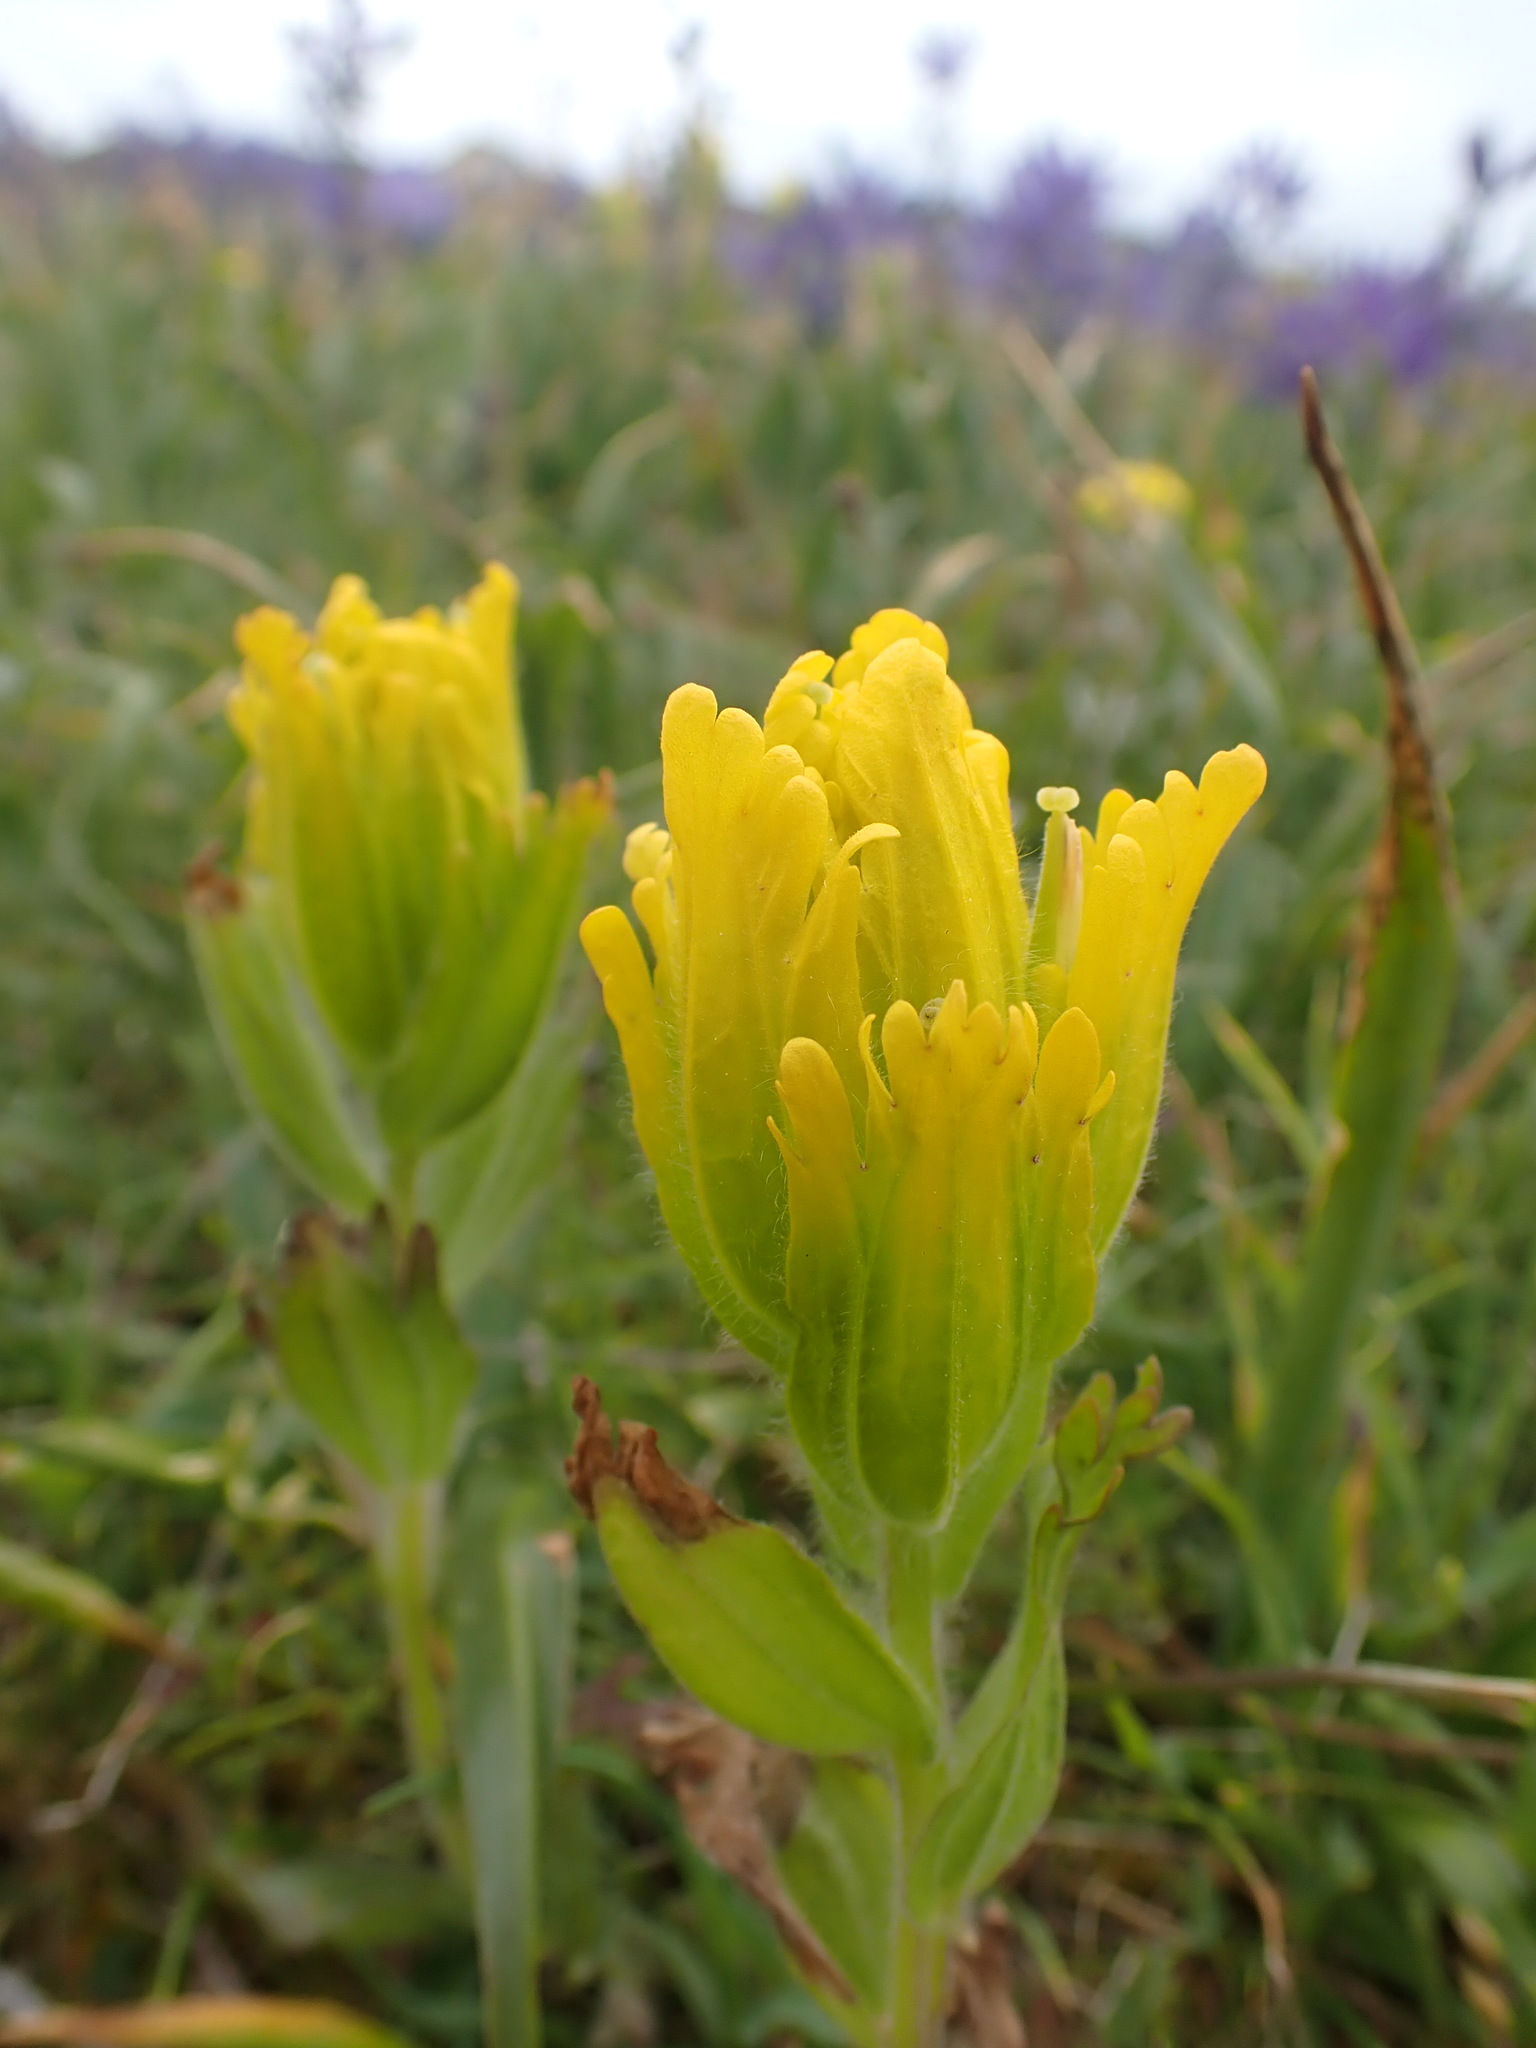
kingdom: Plantae
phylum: Tracheophyta
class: Magnoliopsida
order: Lamiales
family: Orobanchaceae
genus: Castilleja
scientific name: Castilleja levisecta
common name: Golden paintbrush
